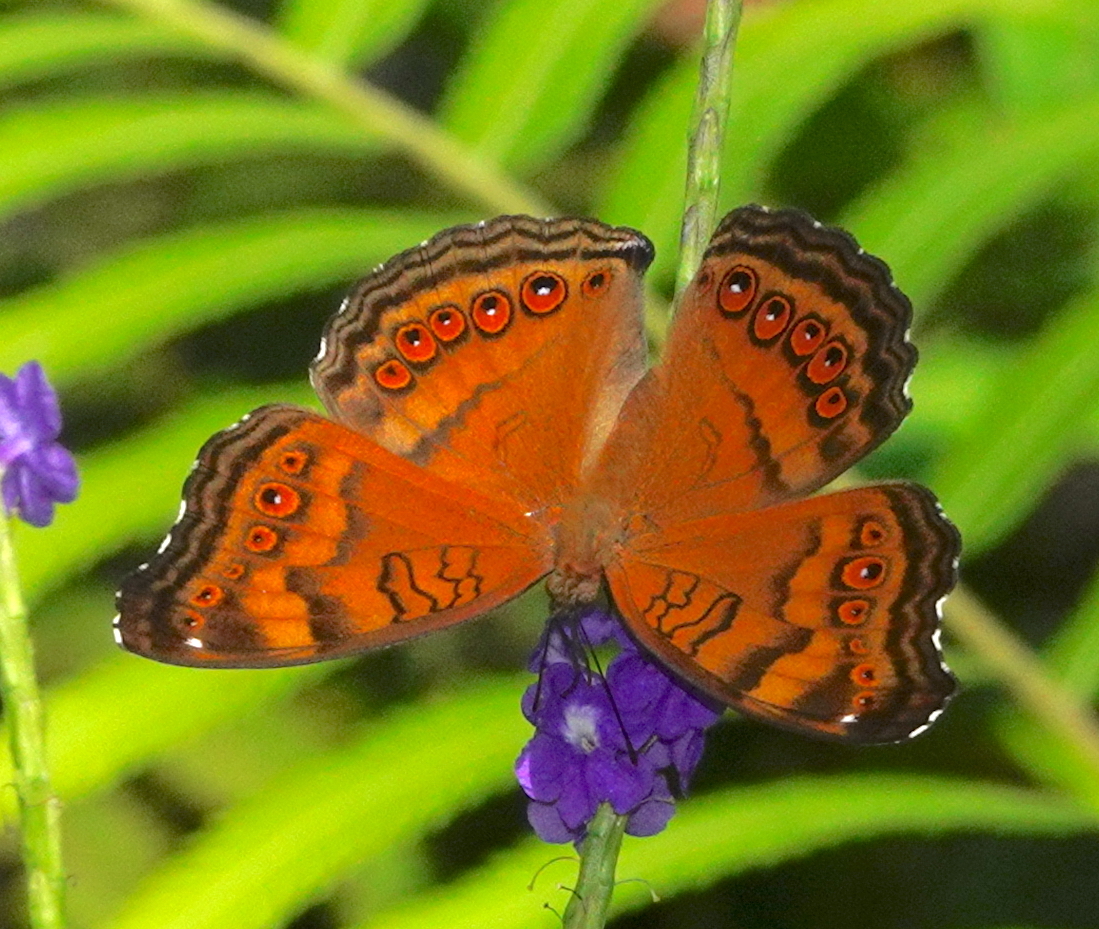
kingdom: Animalia
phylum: Arthropoda
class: Insecta
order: Lepidoptera
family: Nymphalidae
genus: Junonia
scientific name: Junonia hedonia
